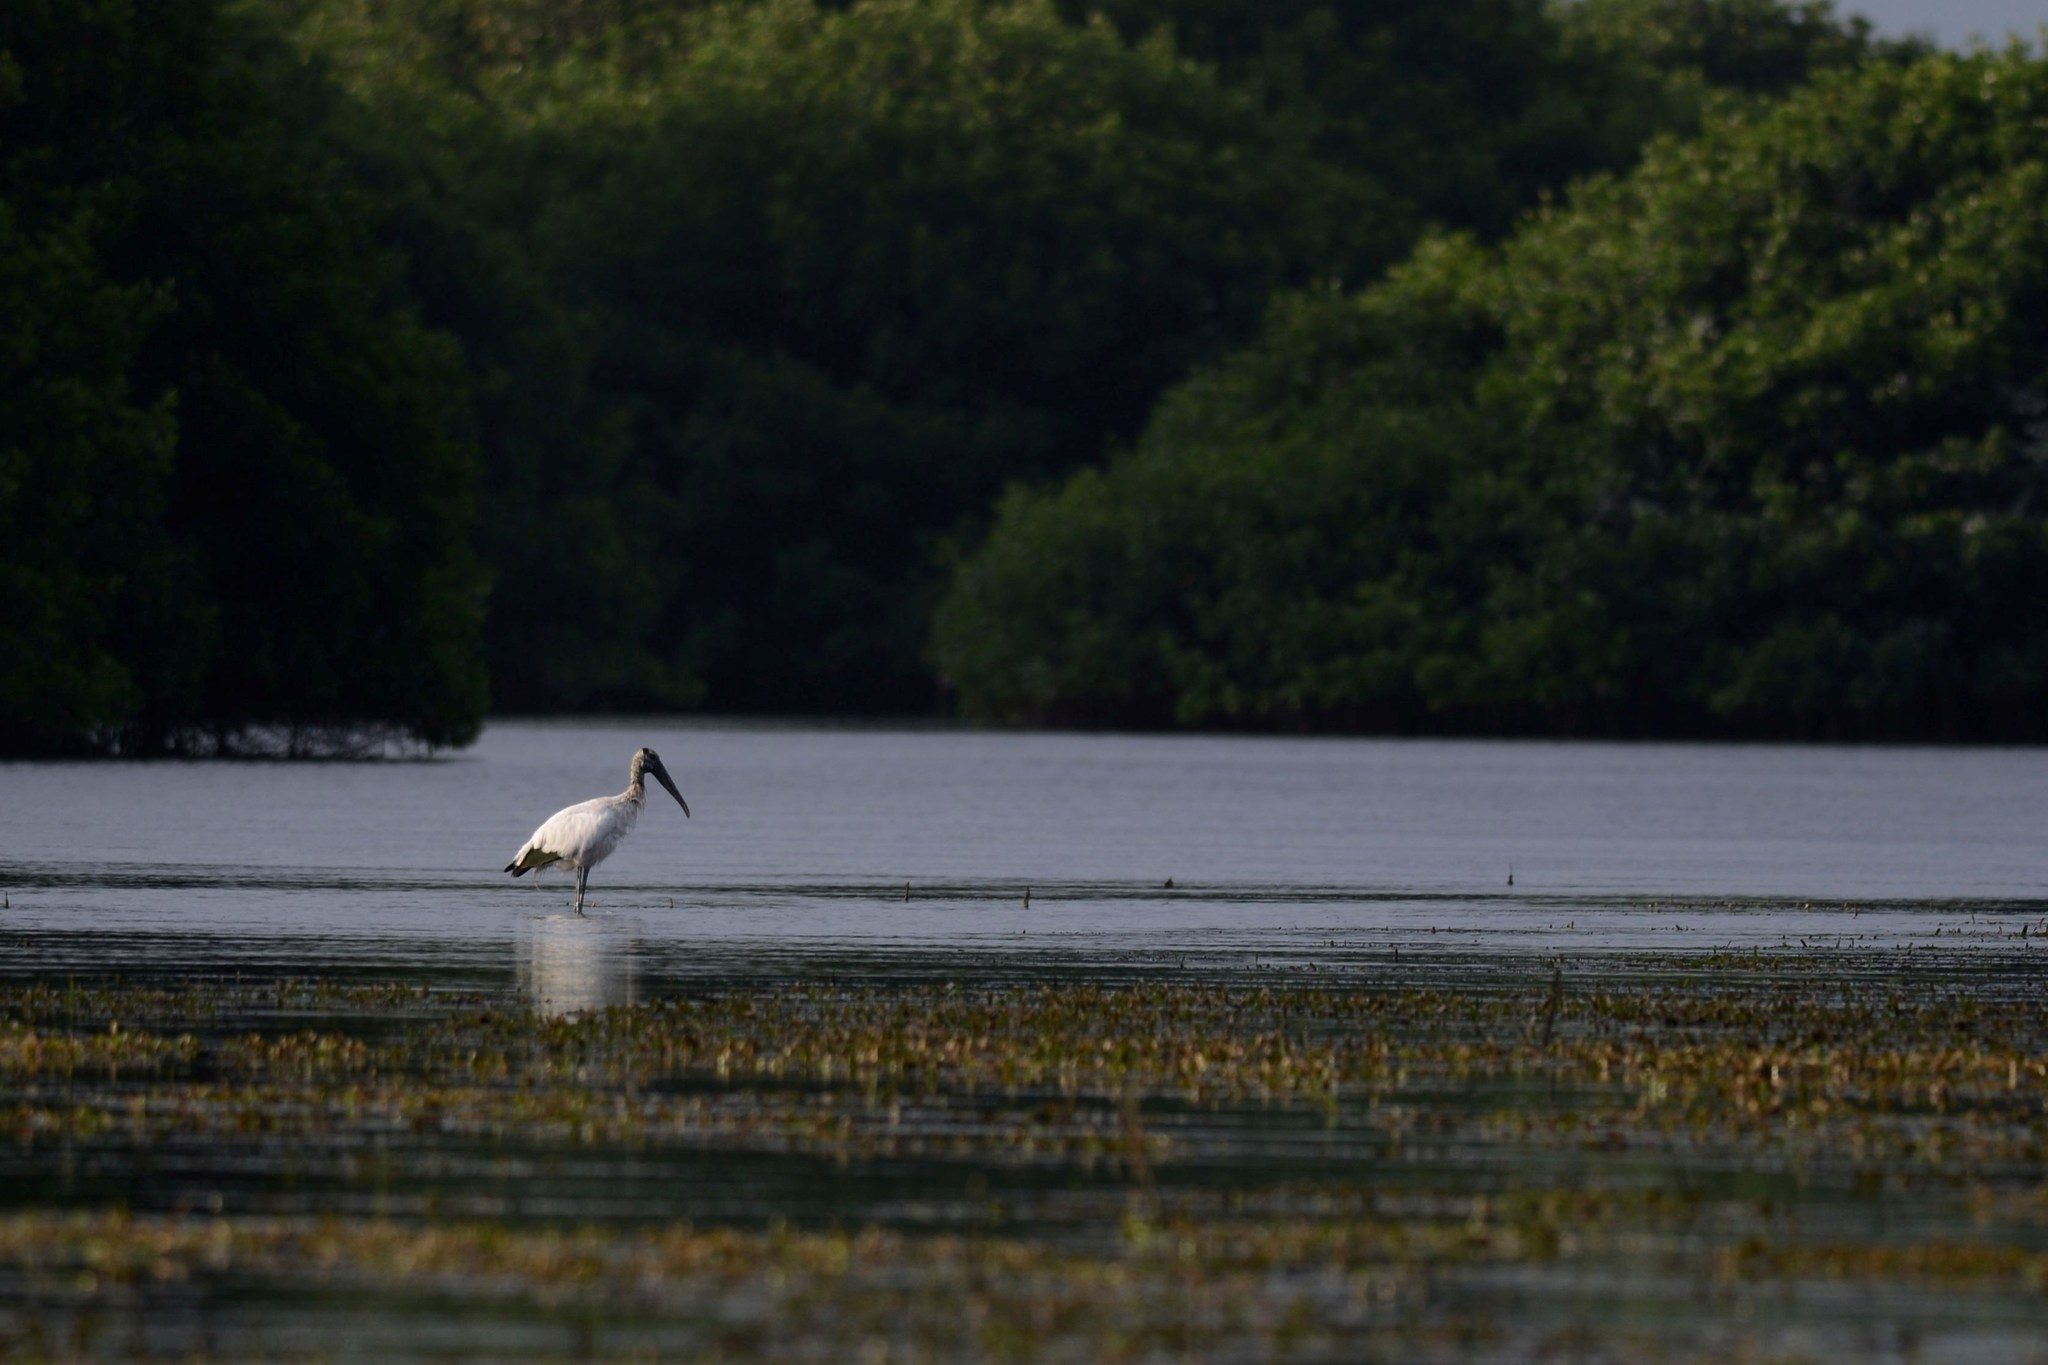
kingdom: Animalia
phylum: Chordata
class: Aves
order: Ciconiiformes
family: Ciconiidae
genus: Mycteria
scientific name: Mycteria americana
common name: Wood stork
